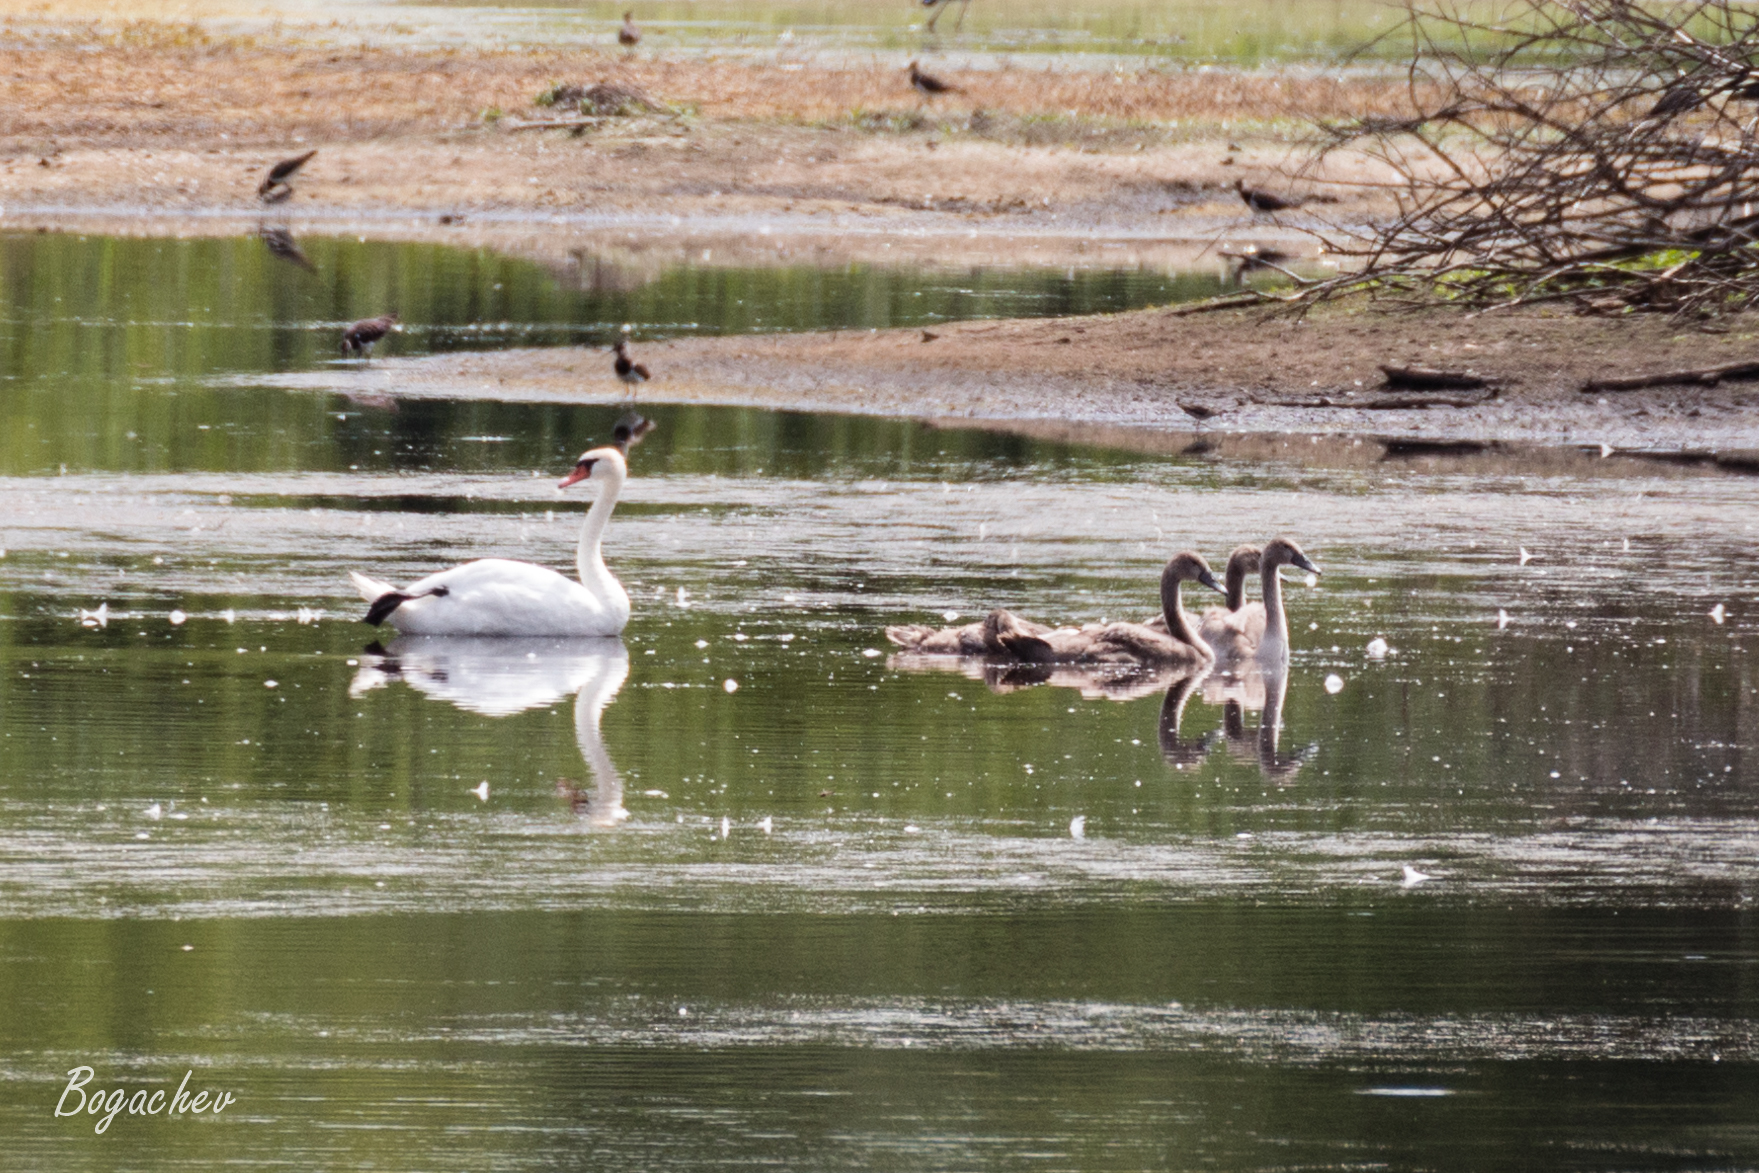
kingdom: Animalia
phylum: Chordata
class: Aves
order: Anseriformes
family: Anatidae
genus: Cygnus
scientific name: Cygnus olor
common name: Mute swan
